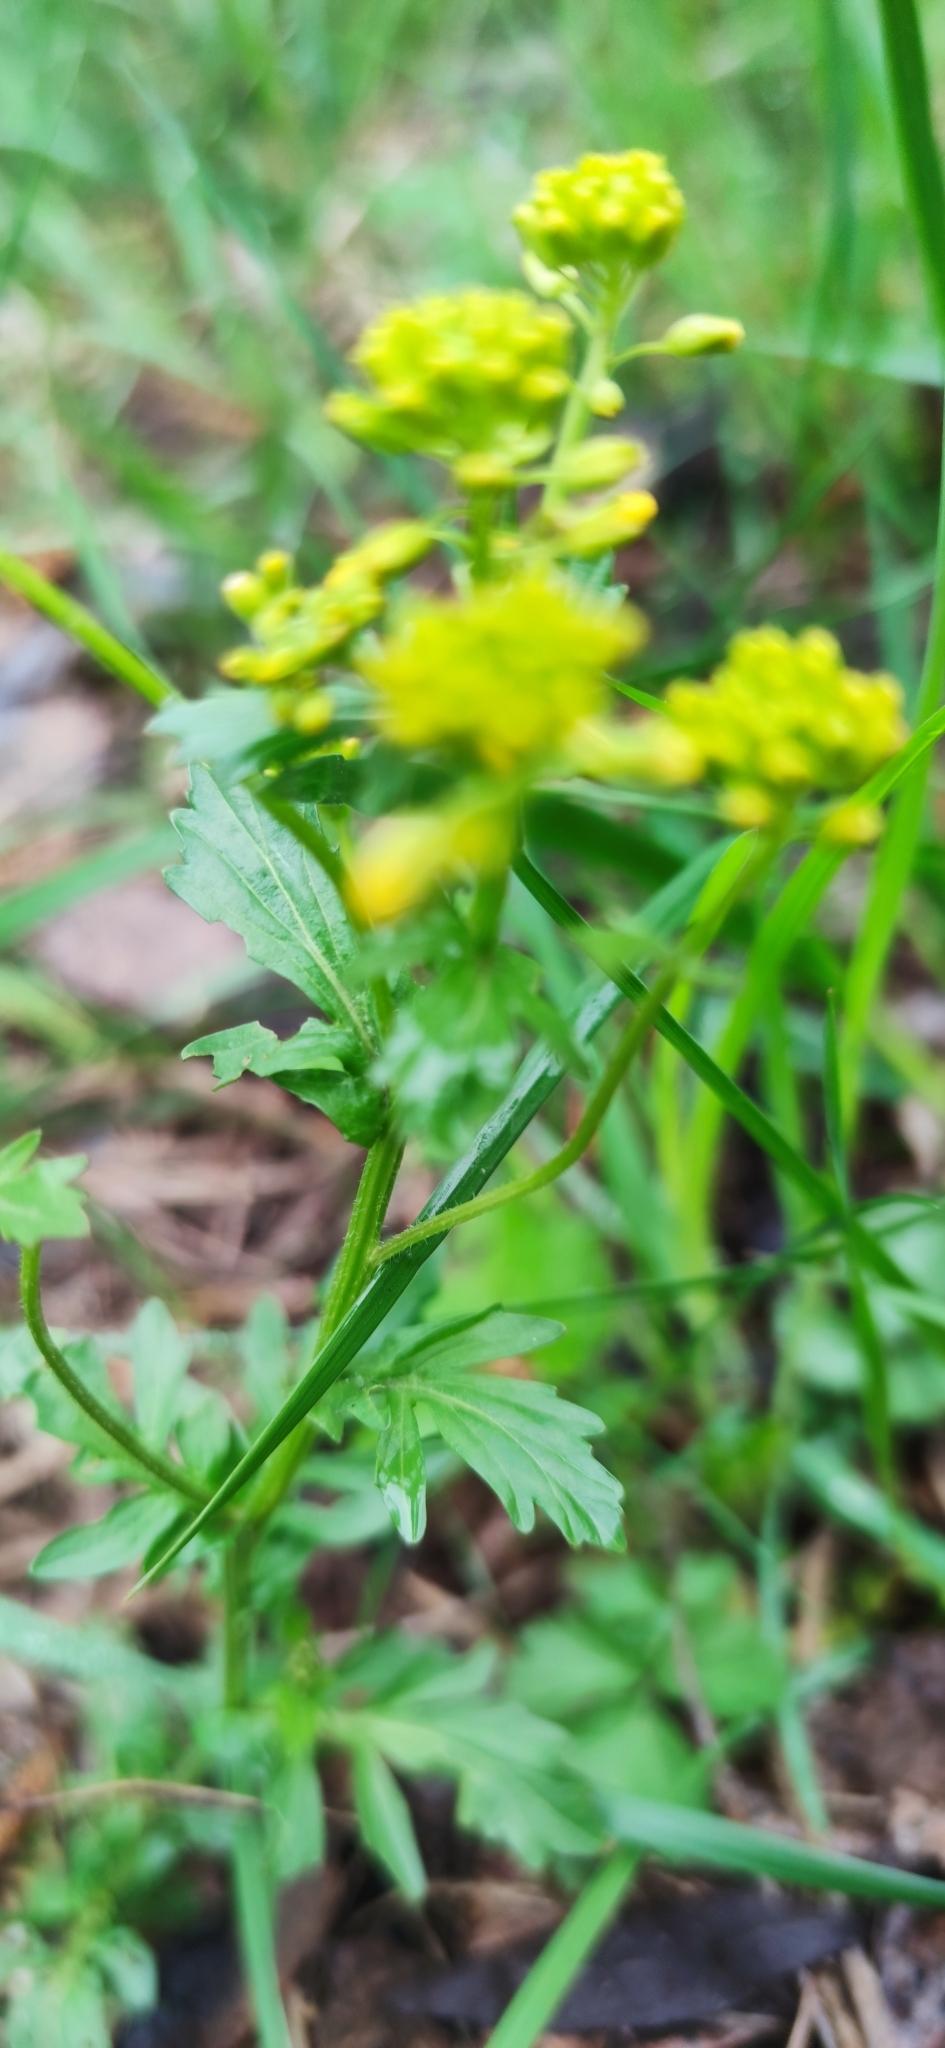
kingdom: Plantae
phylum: Tracheophyta
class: Magnoliopsida
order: Brassicales
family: Brassicaceae
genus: Barbarea
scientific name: Barbarea vulgaris
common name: Cressy-greens
